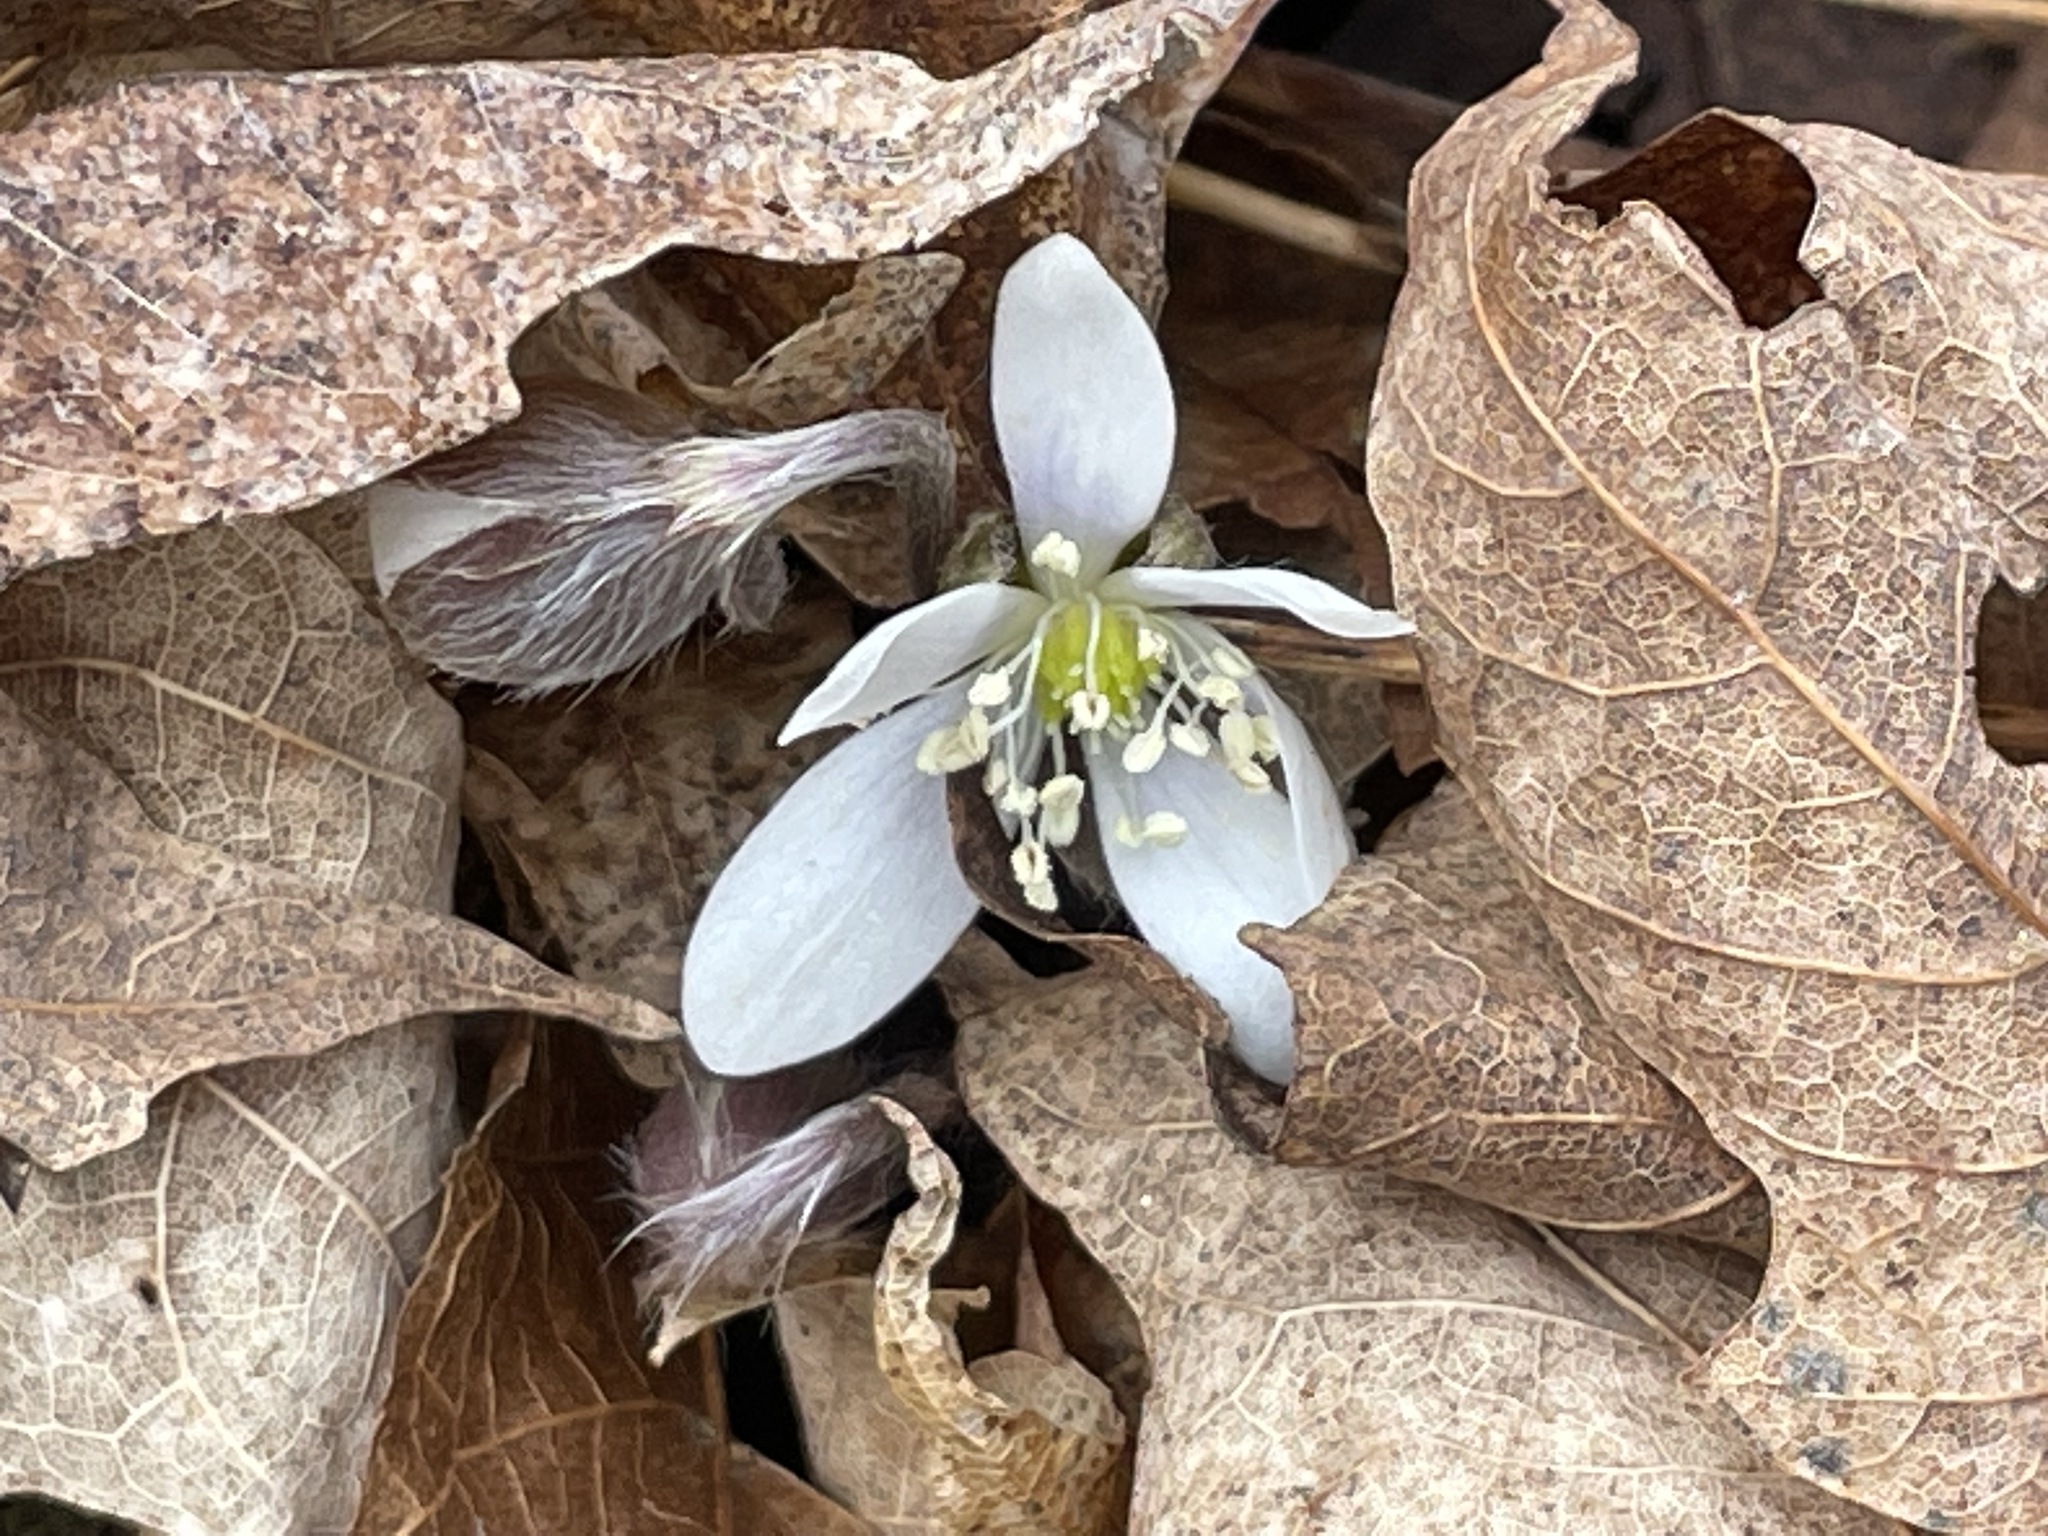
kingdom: Plantae
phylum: Tracheophyta
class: Magnoliopsida
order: Ranunculales
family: Ranunculaceae
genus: Hepatica
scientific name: Hepatica americana
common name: American hepatica
